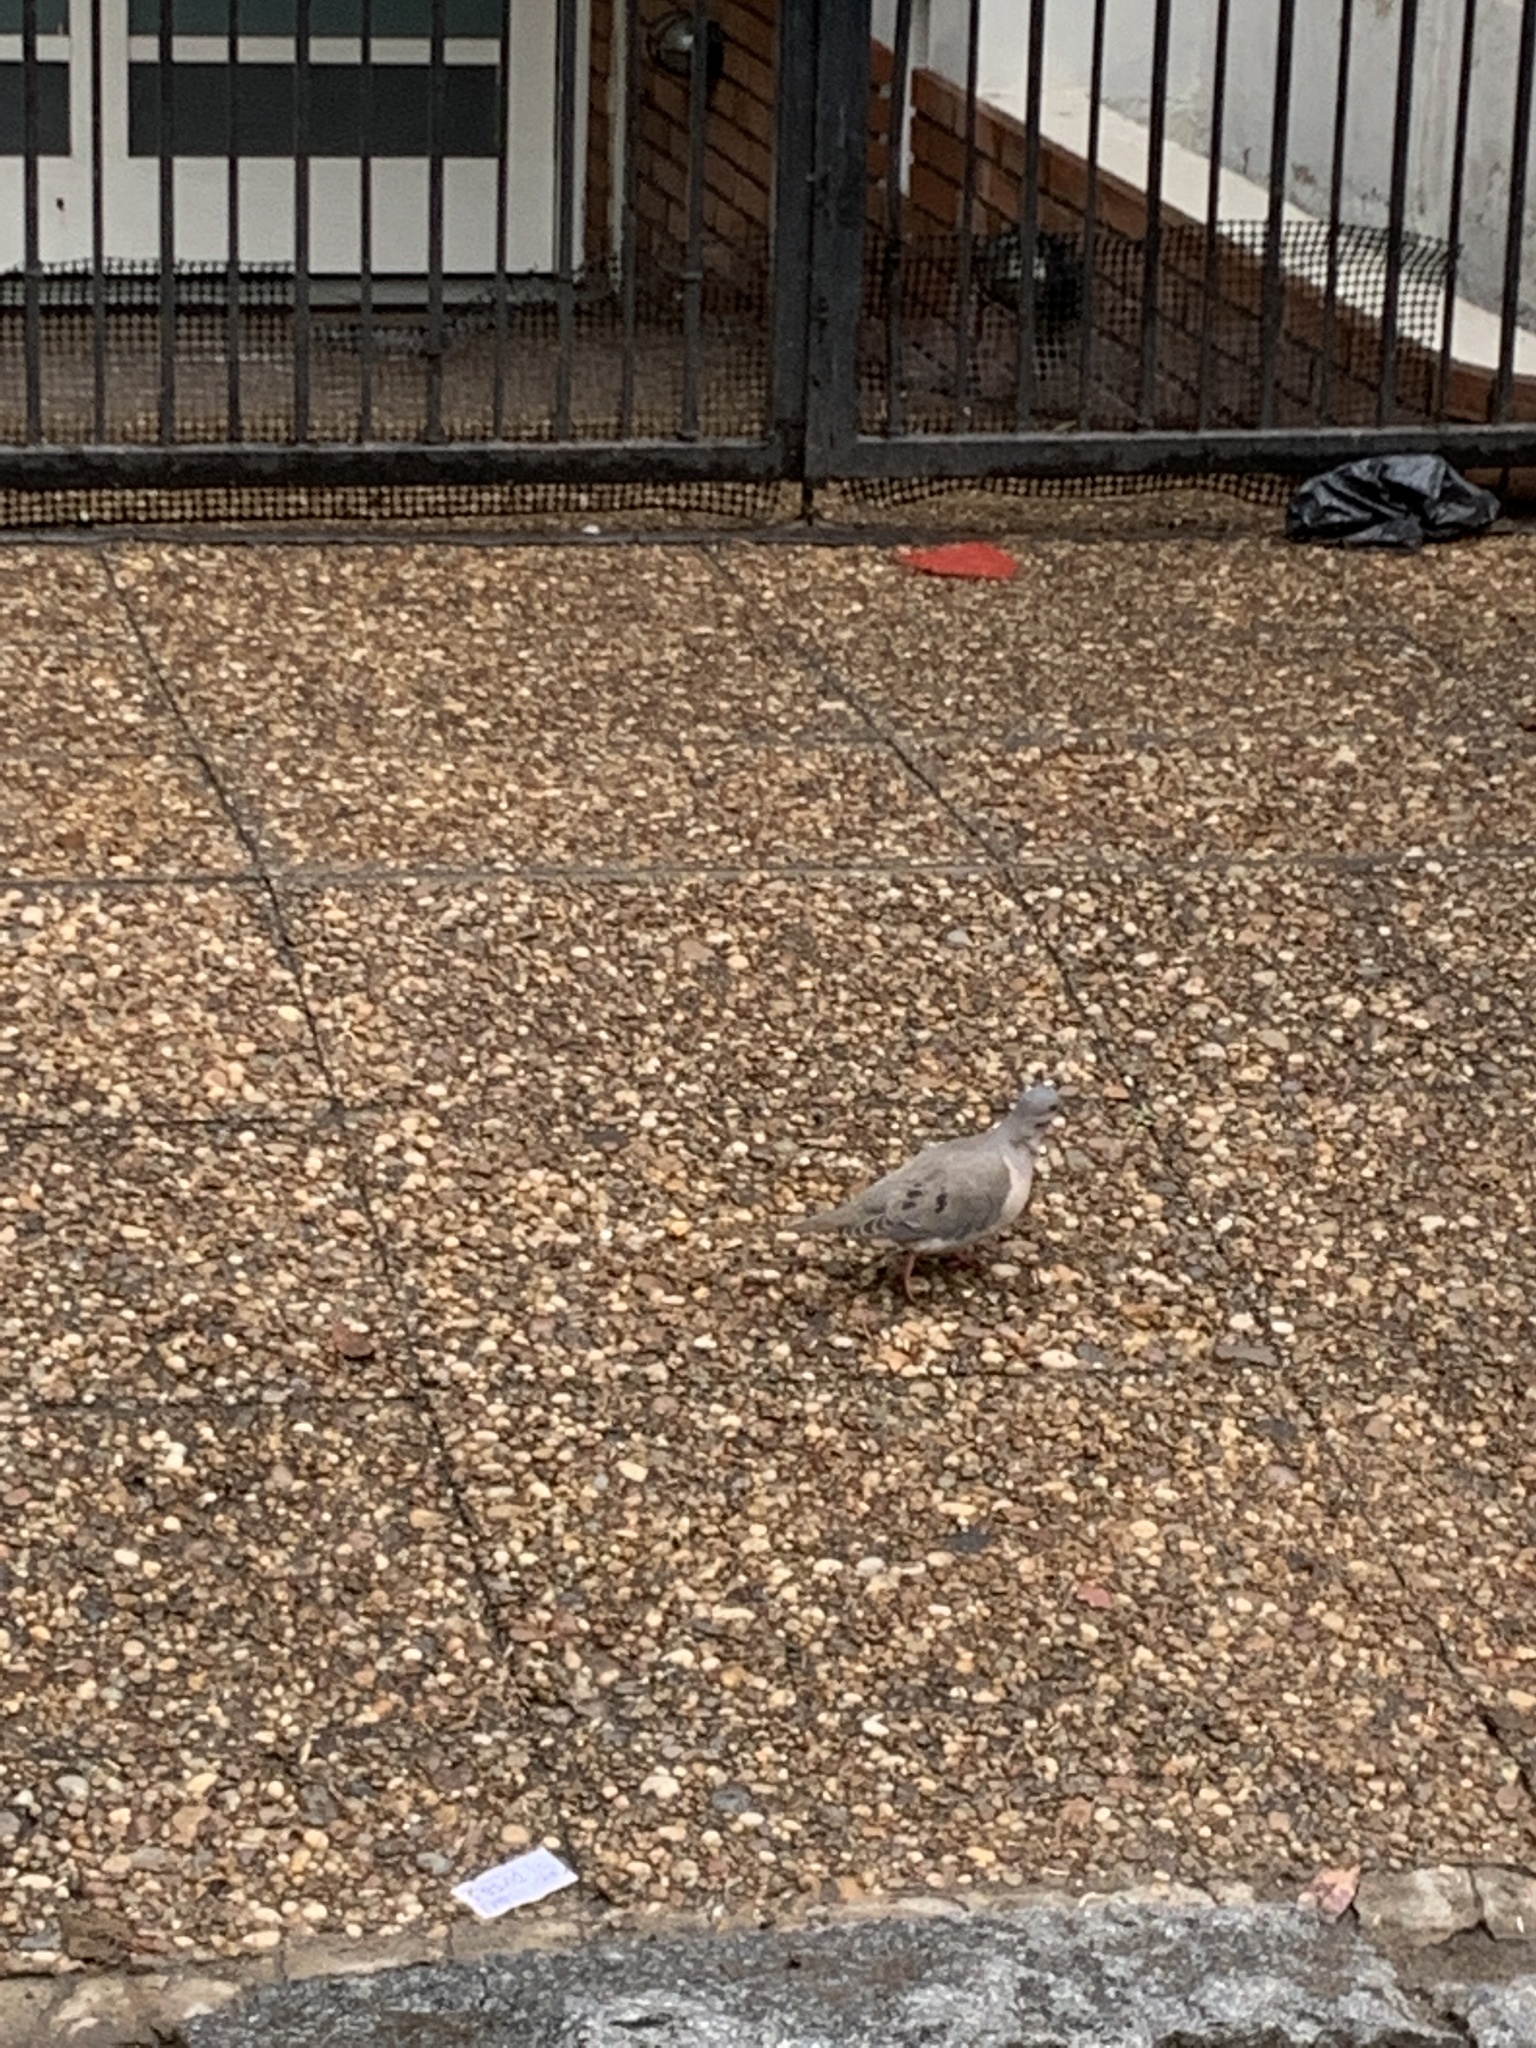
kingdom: Animalia
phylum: Chordata
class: Aves
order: Columbiformes
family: Columbidae
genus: Zenaida
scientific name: Zenaida auriculata
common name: Eared dove
